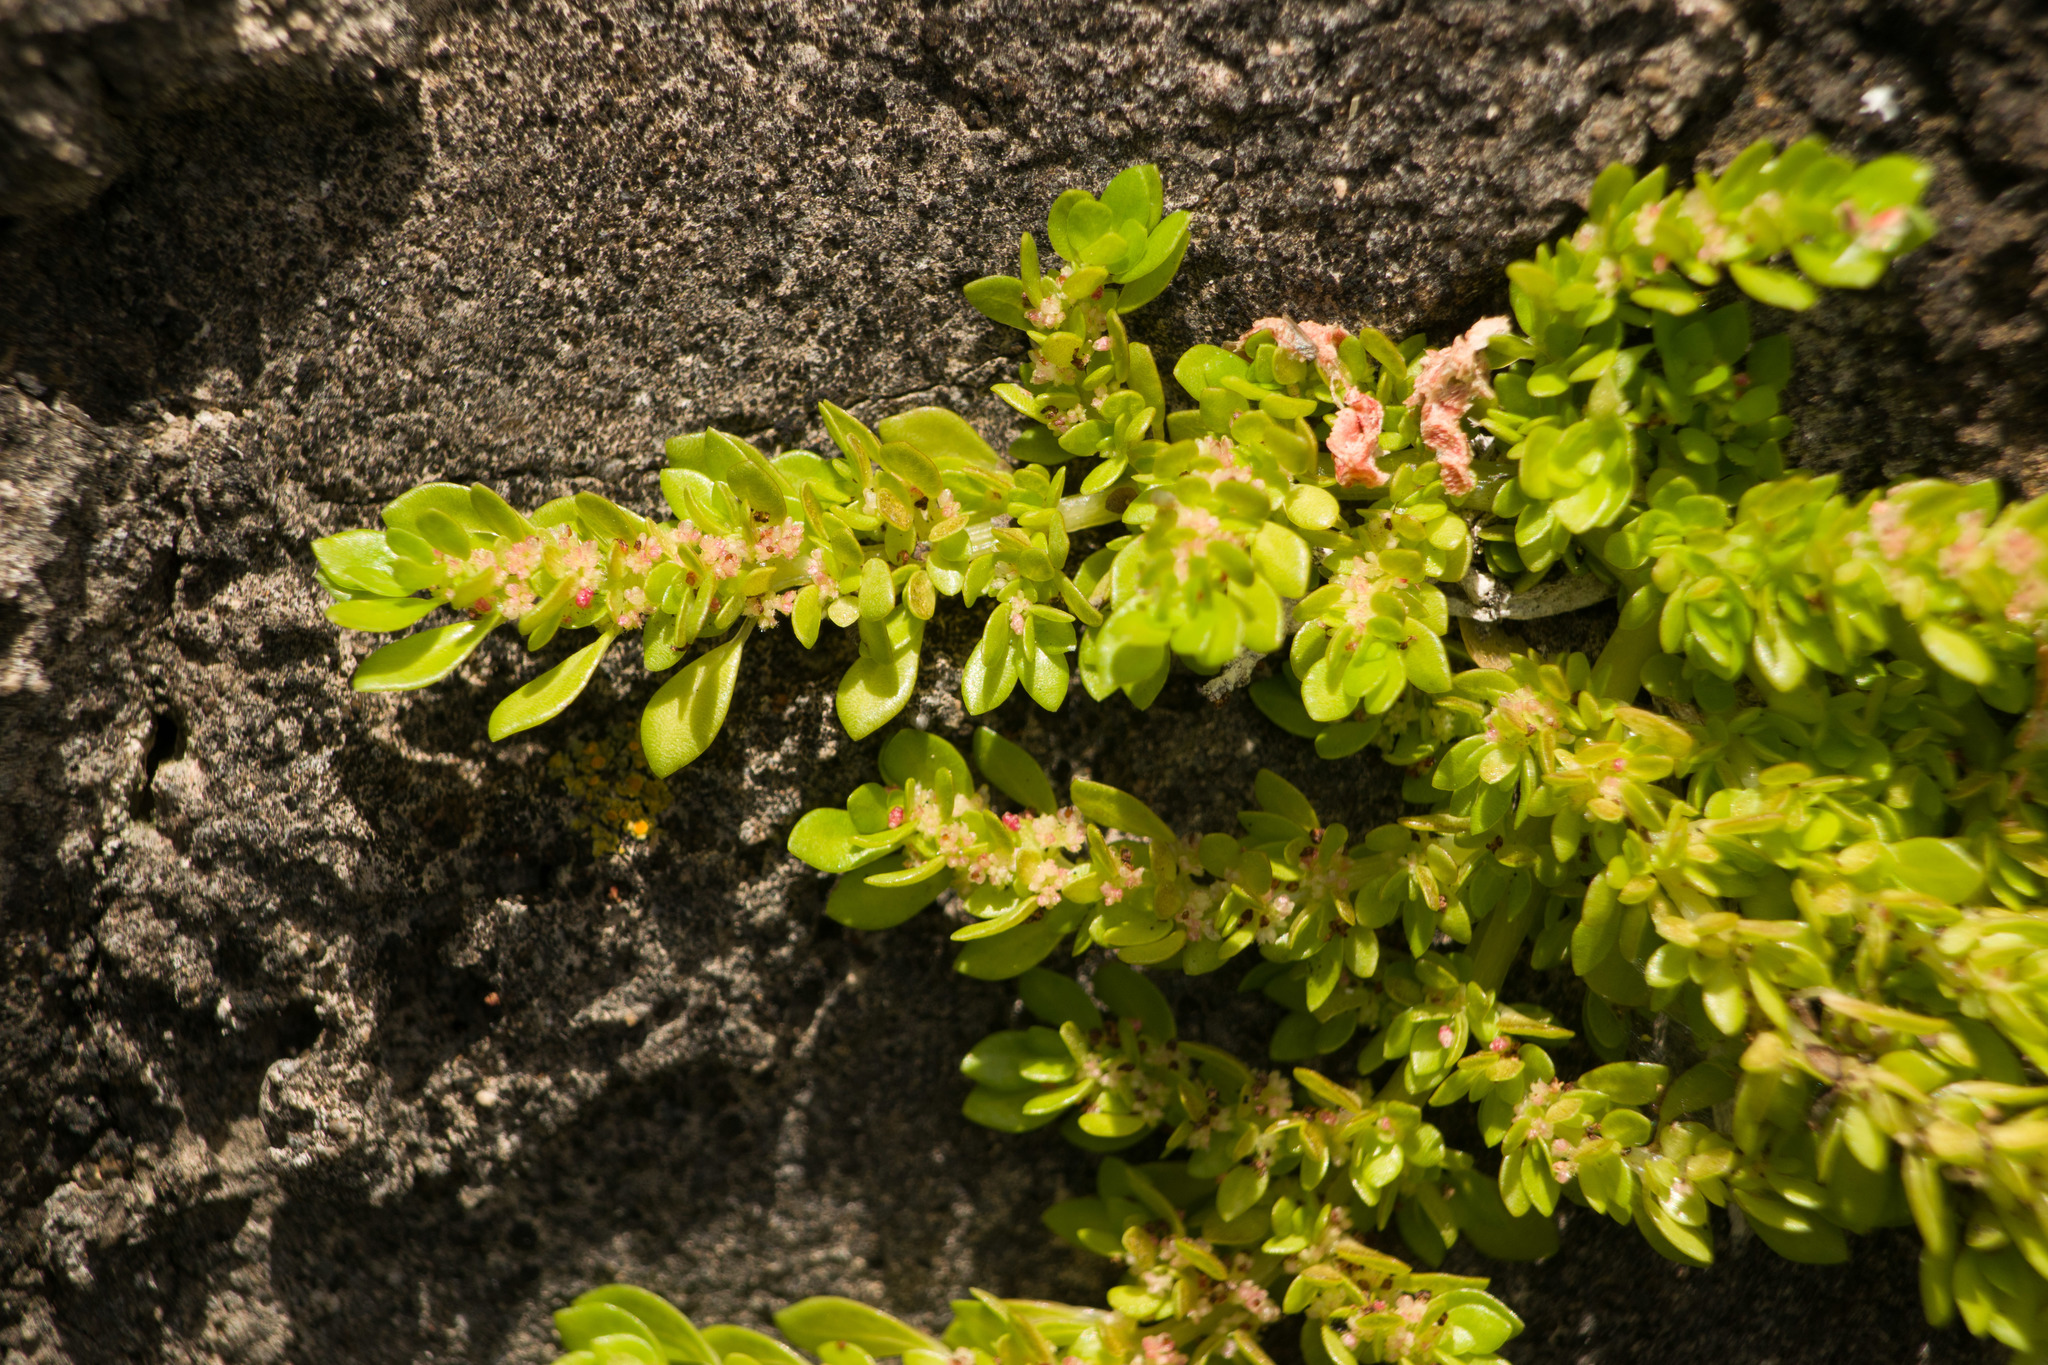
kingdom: Plantae
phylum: Tracheophyta
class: Magnoliopsida
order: Rosales
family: Urticaceae
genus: Pilea
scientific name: Pilea microphylla
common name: Artillery-plant
